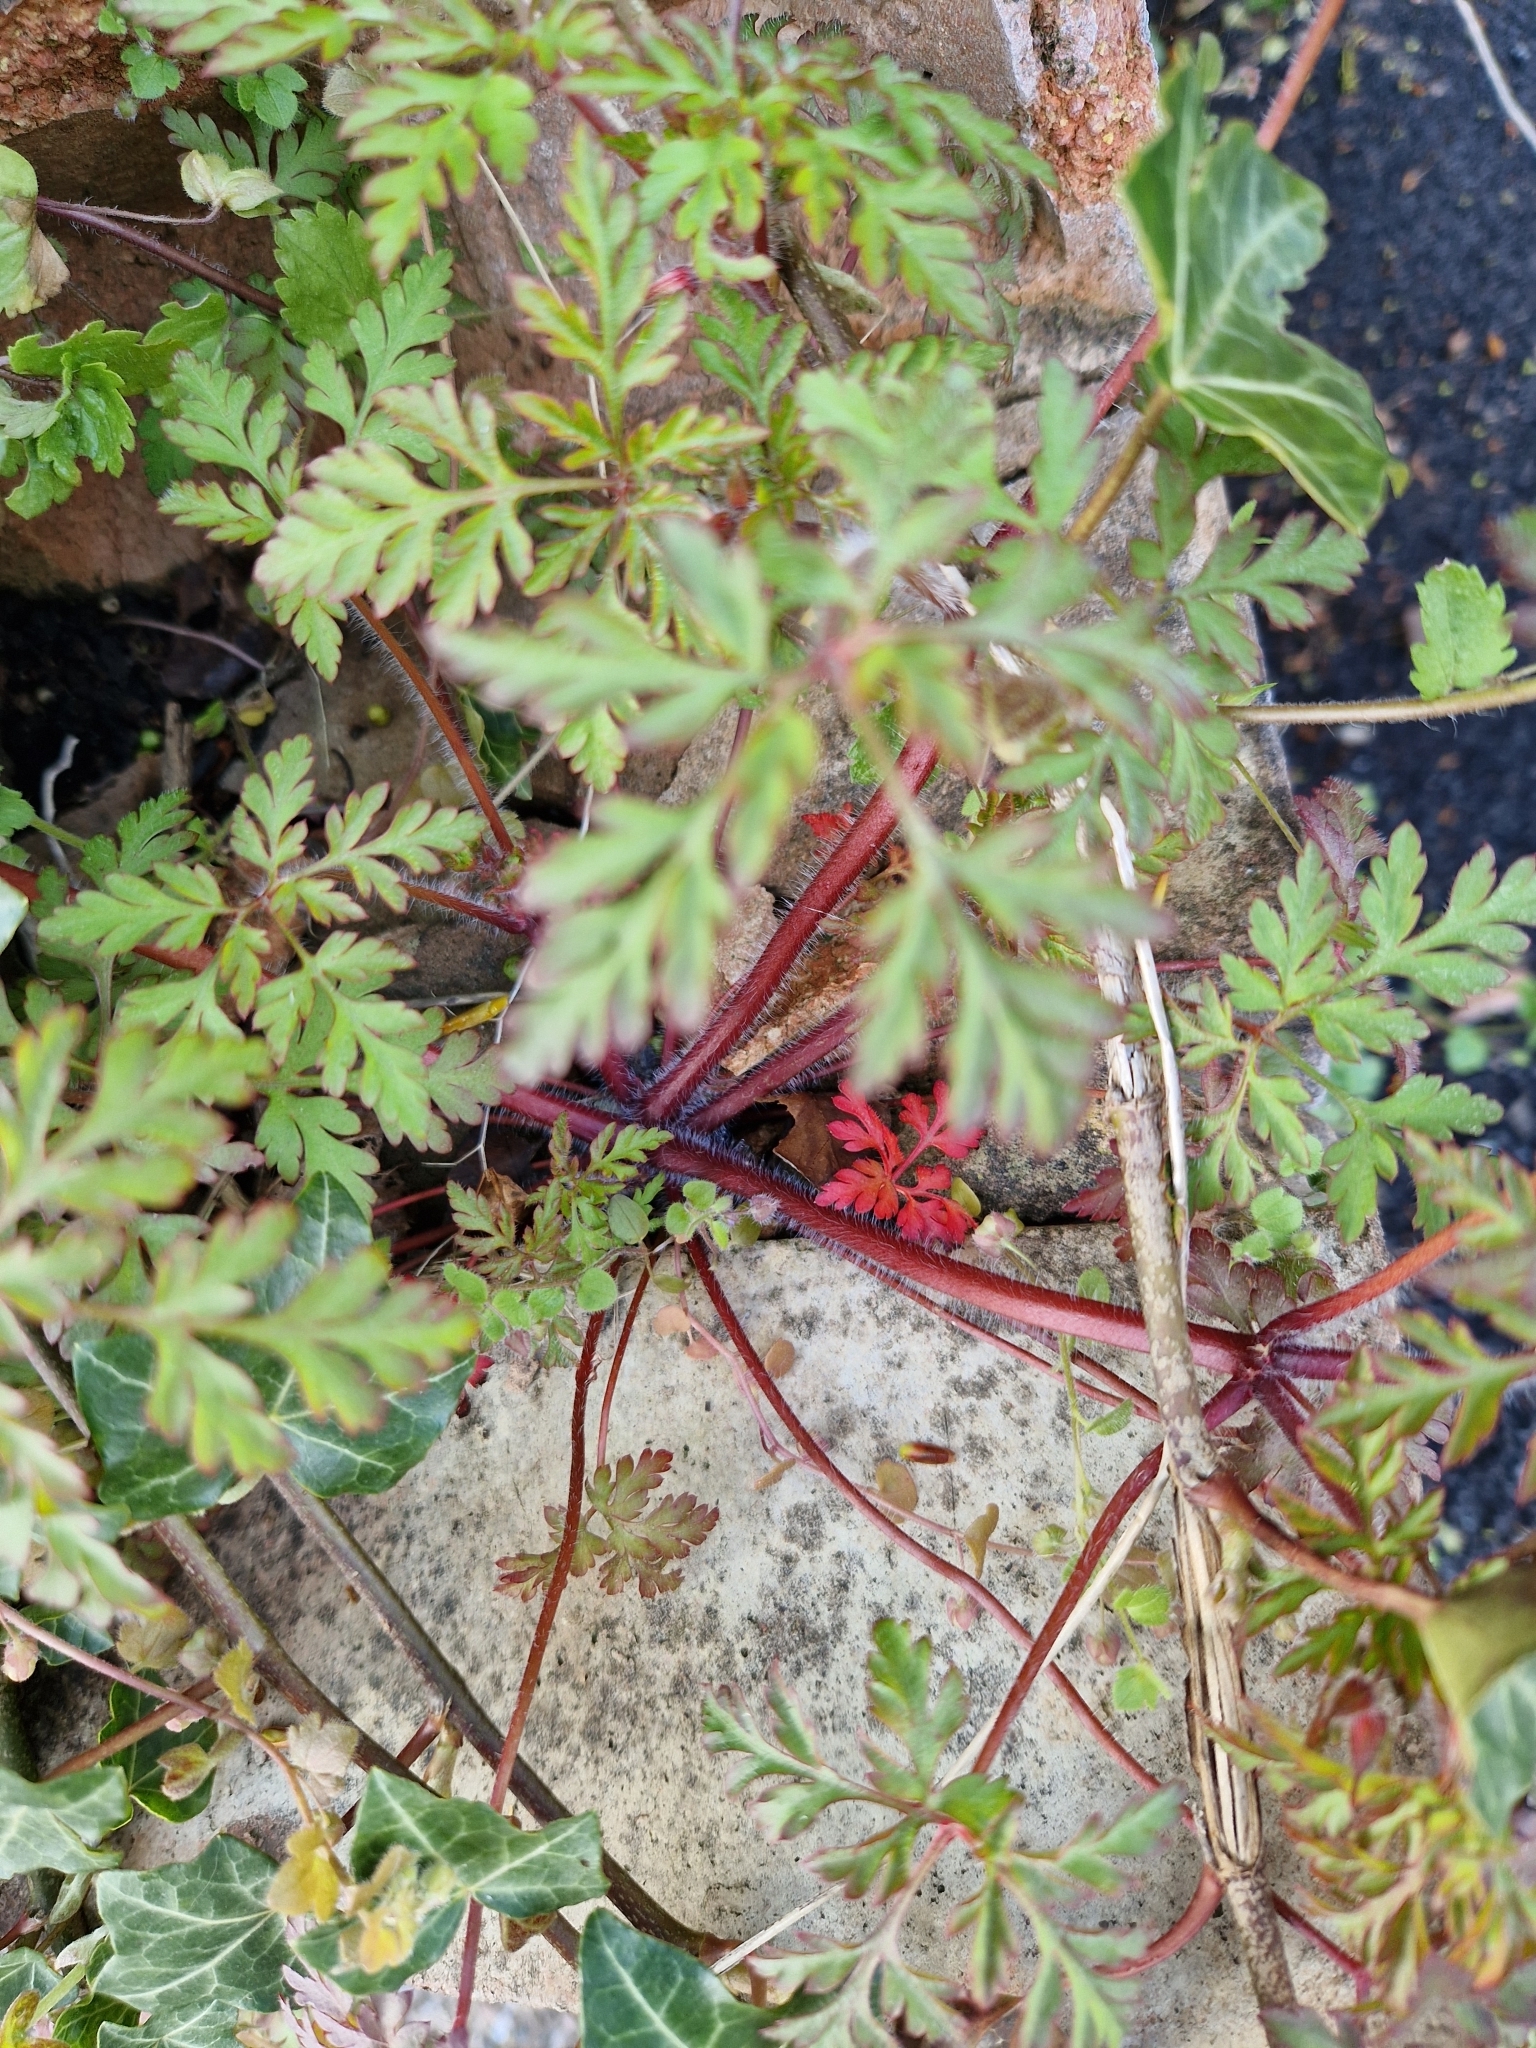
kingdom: Plantae
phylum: Tracheophyta
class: Magnoliopsida
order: Geraniales
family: Geraniaceae
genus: Geranium
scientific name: Geranium robertianum
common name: Herb-robert
